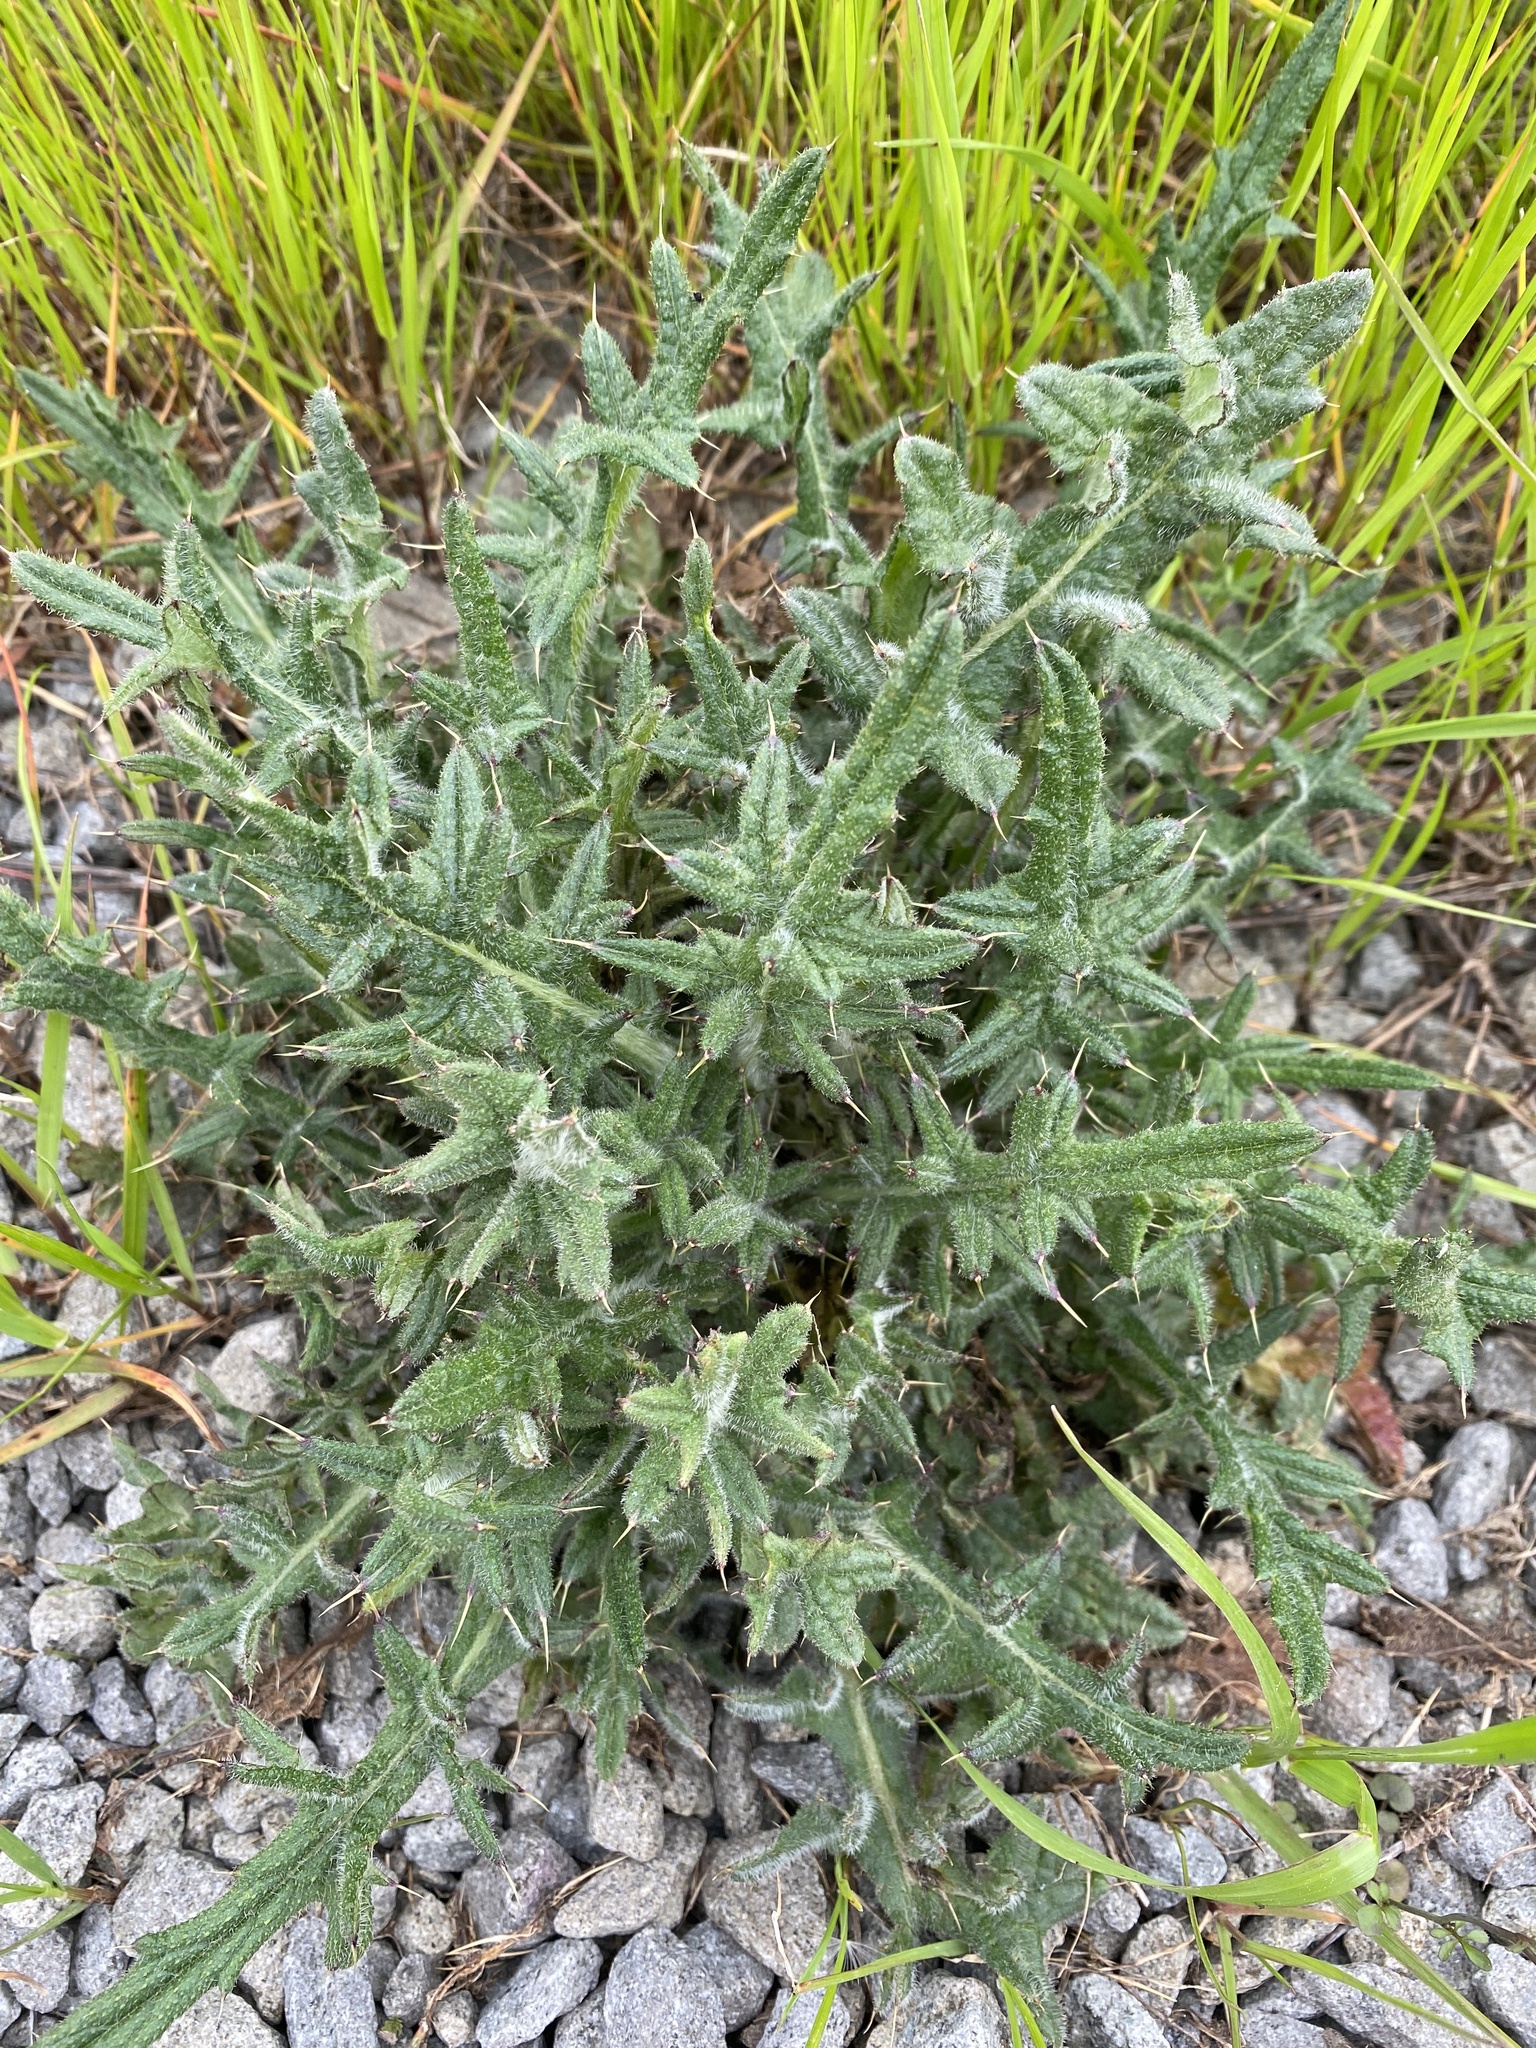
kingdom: Plantae
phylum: Tracheophyta
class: Magnoliopsida
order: Asterales
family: Asteraceae
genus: Cirsium
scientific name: Cirsium vulgare
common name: Bull thistle
